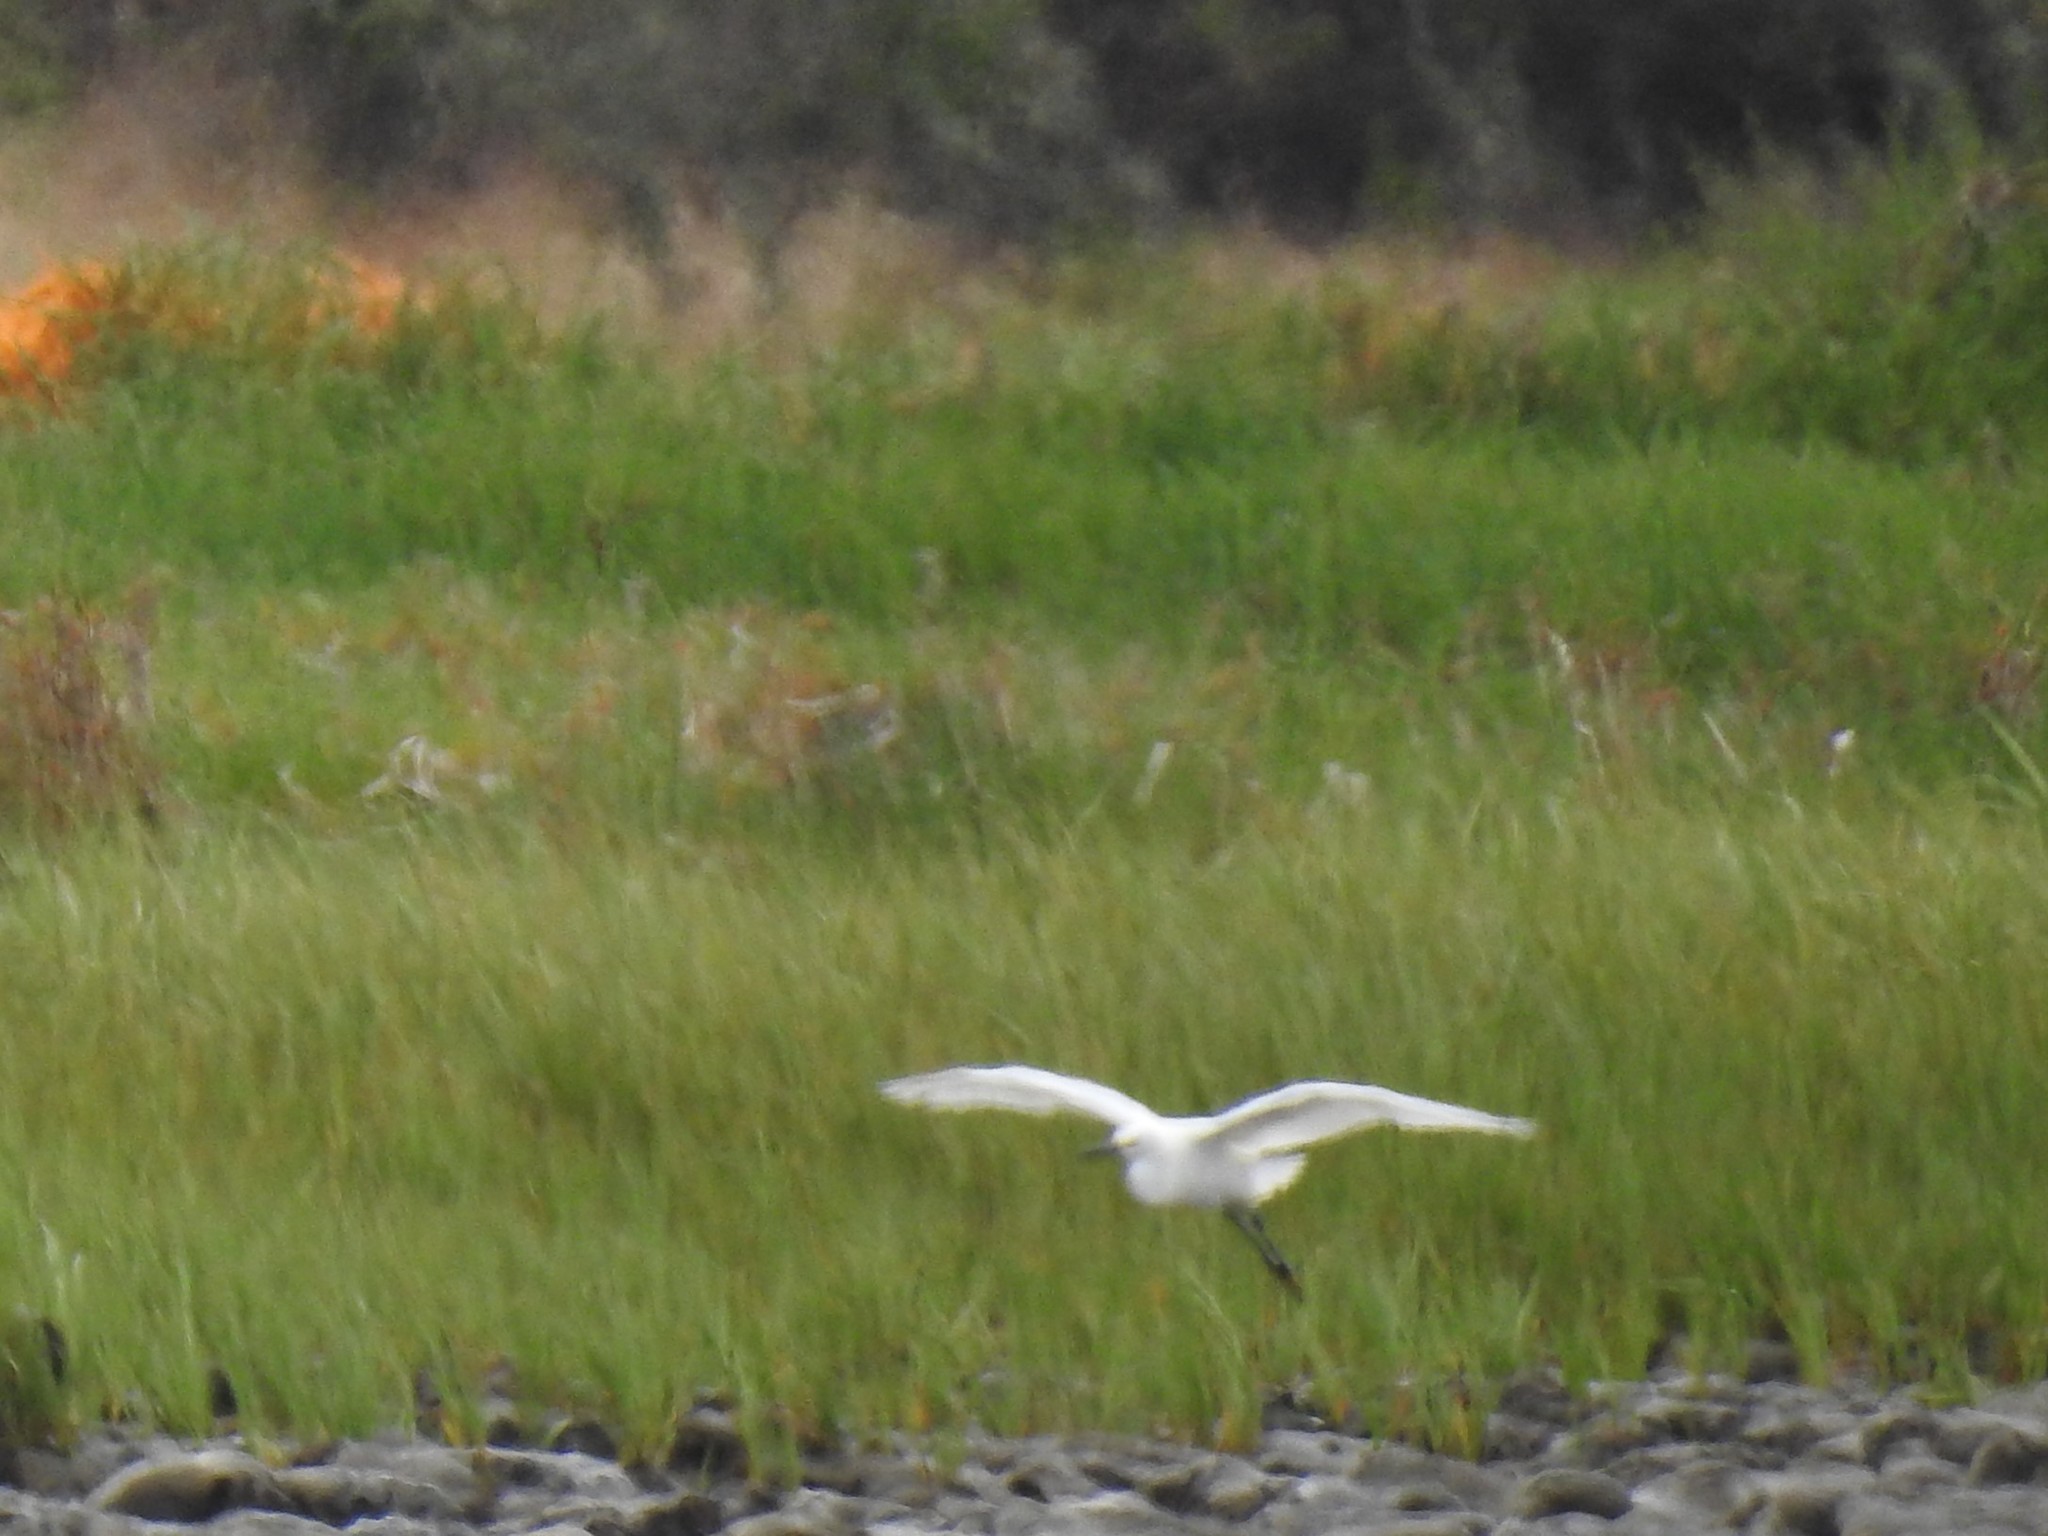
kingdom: Animalia
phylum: Chordata
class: Aves
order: Pelecaniformes
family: Ardeidae
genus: Egretta
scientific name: Egretta thula
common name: Snowy egret
